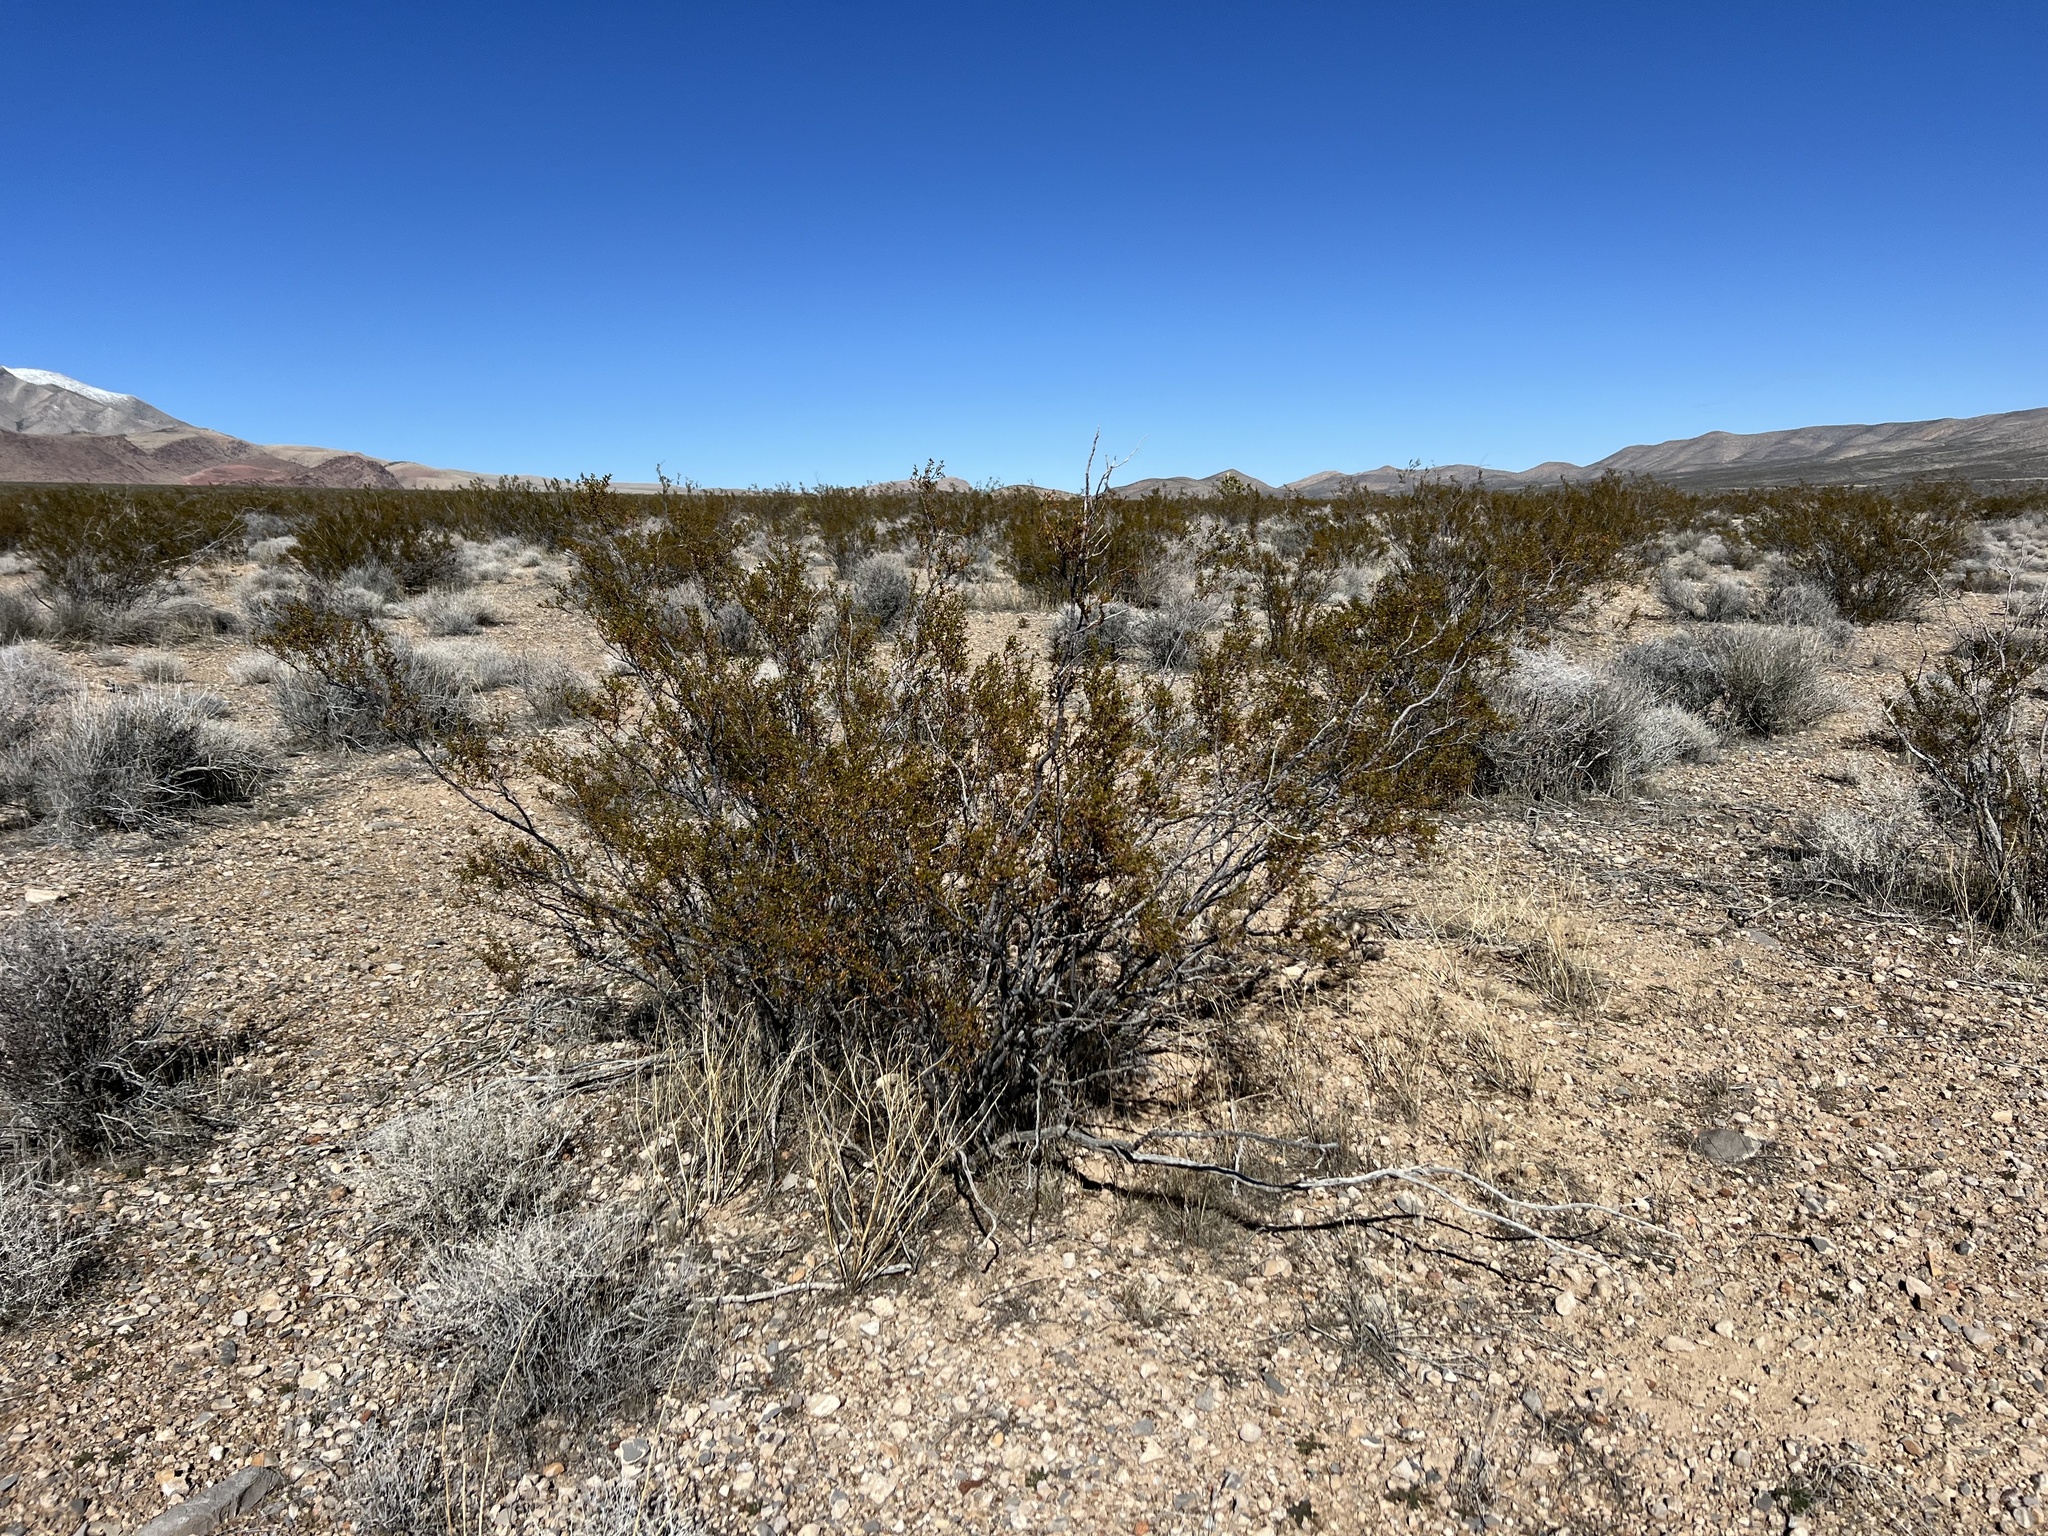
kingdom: Plantae
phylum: Tracheophyta
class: Magnoliopsida
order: Zygophyllales
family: Zygophyllaceae
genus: Larrea
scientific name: Larrea tridentata
